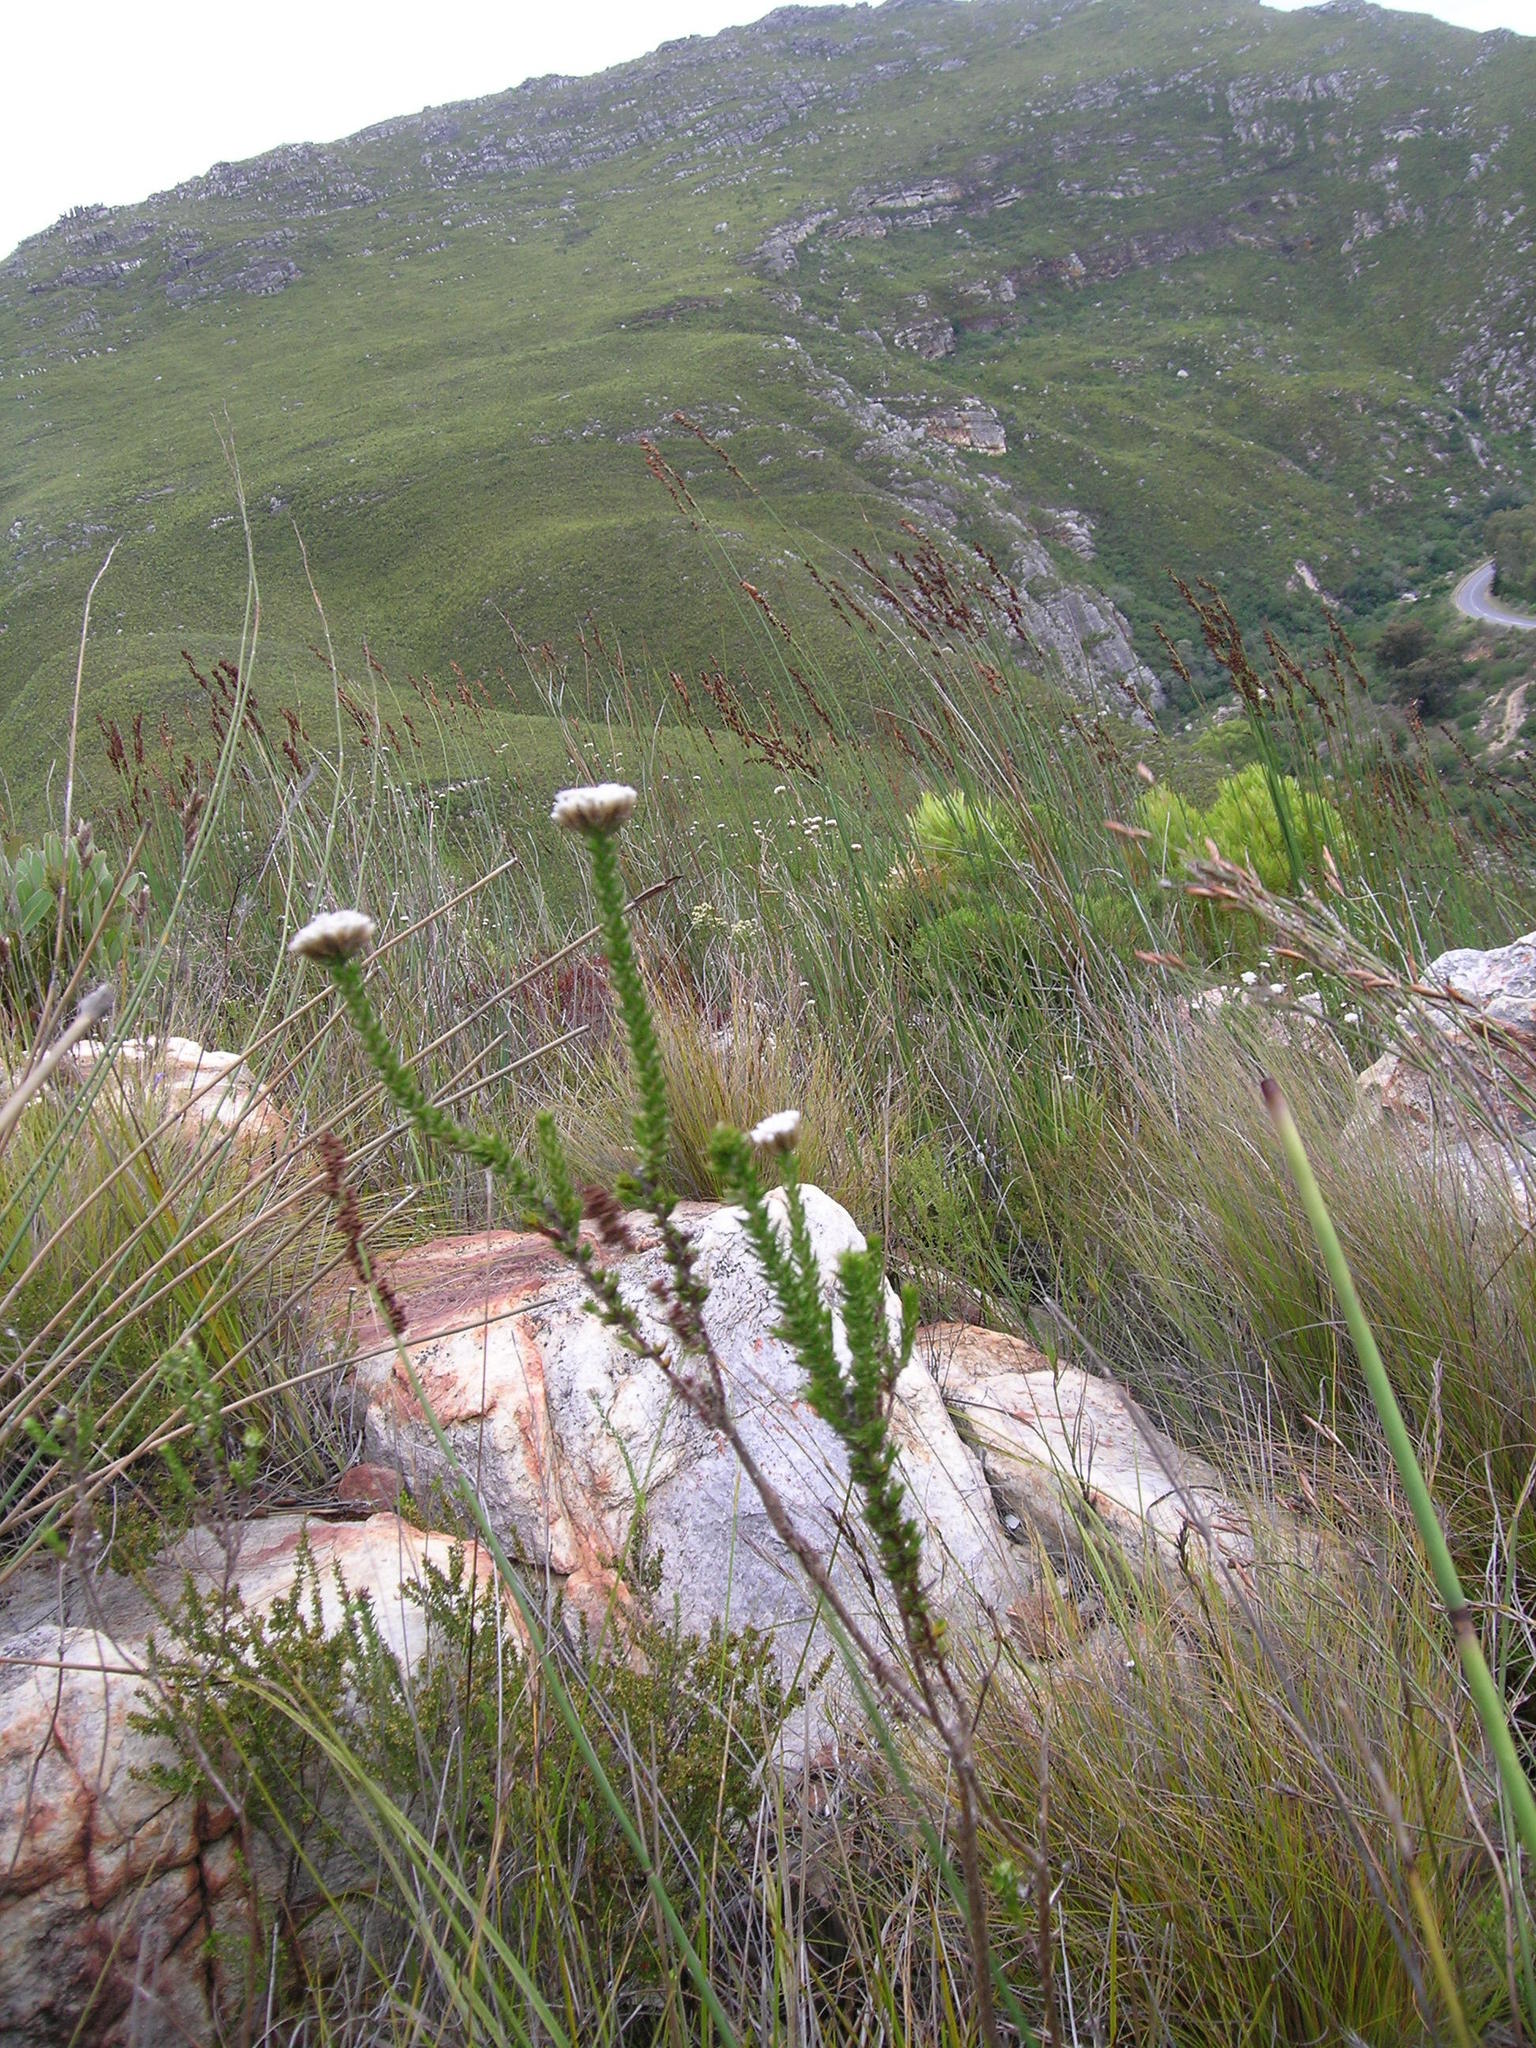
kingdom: Plantae
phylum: Tracheophyta
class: Magnoliopsida
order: Asterales
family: Asteraceae
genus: Metalasia
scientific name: Metalasia pungens
